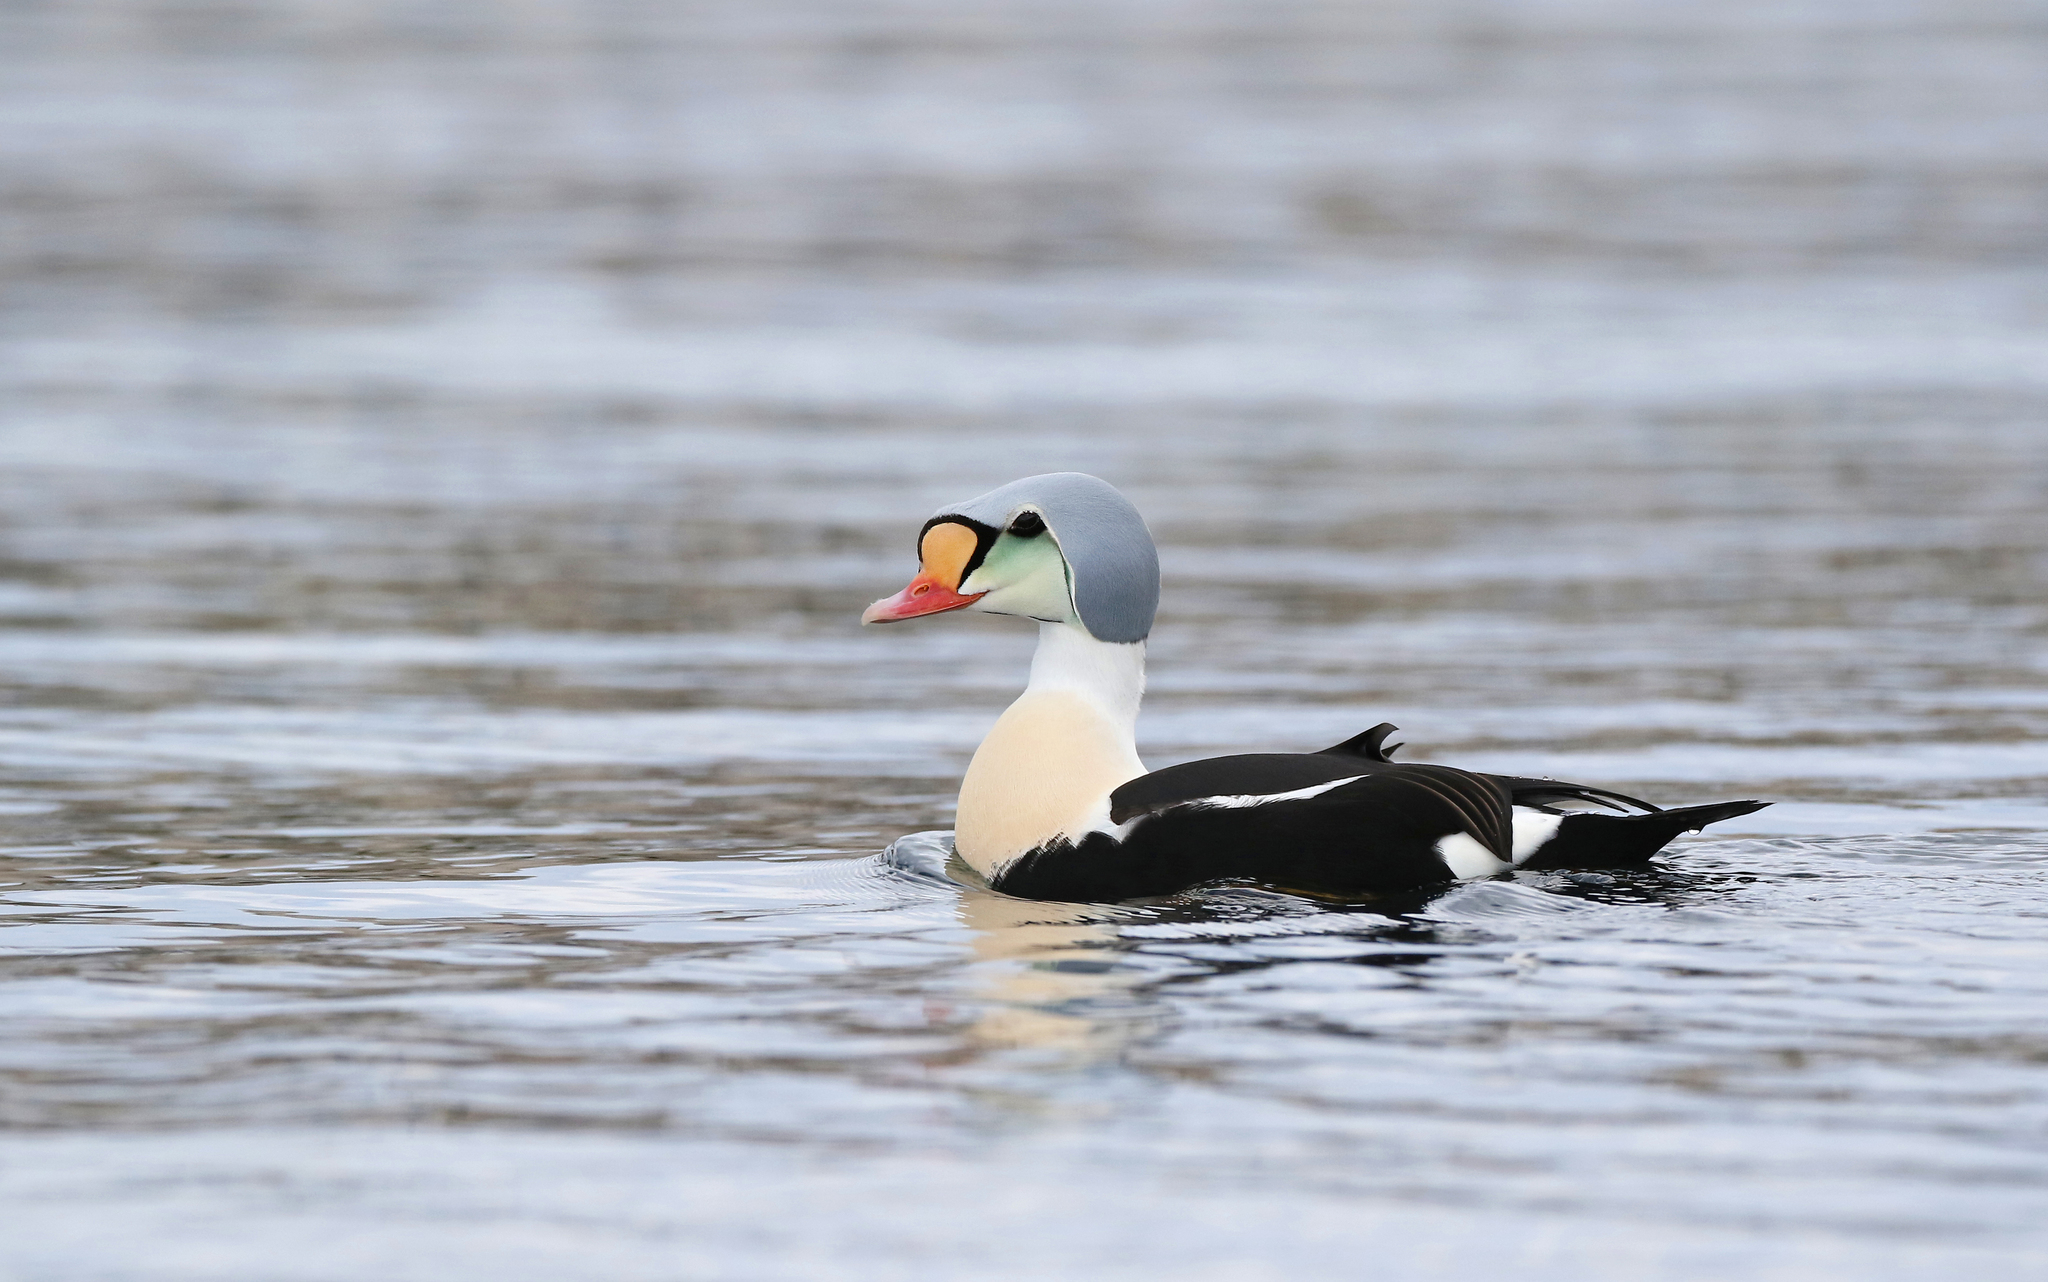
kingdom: Animalia
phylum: Chordata
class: Aves
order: Anseriformes
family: Anatidae
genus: Somateria
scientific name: Somateria spectabilis
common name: King eider
